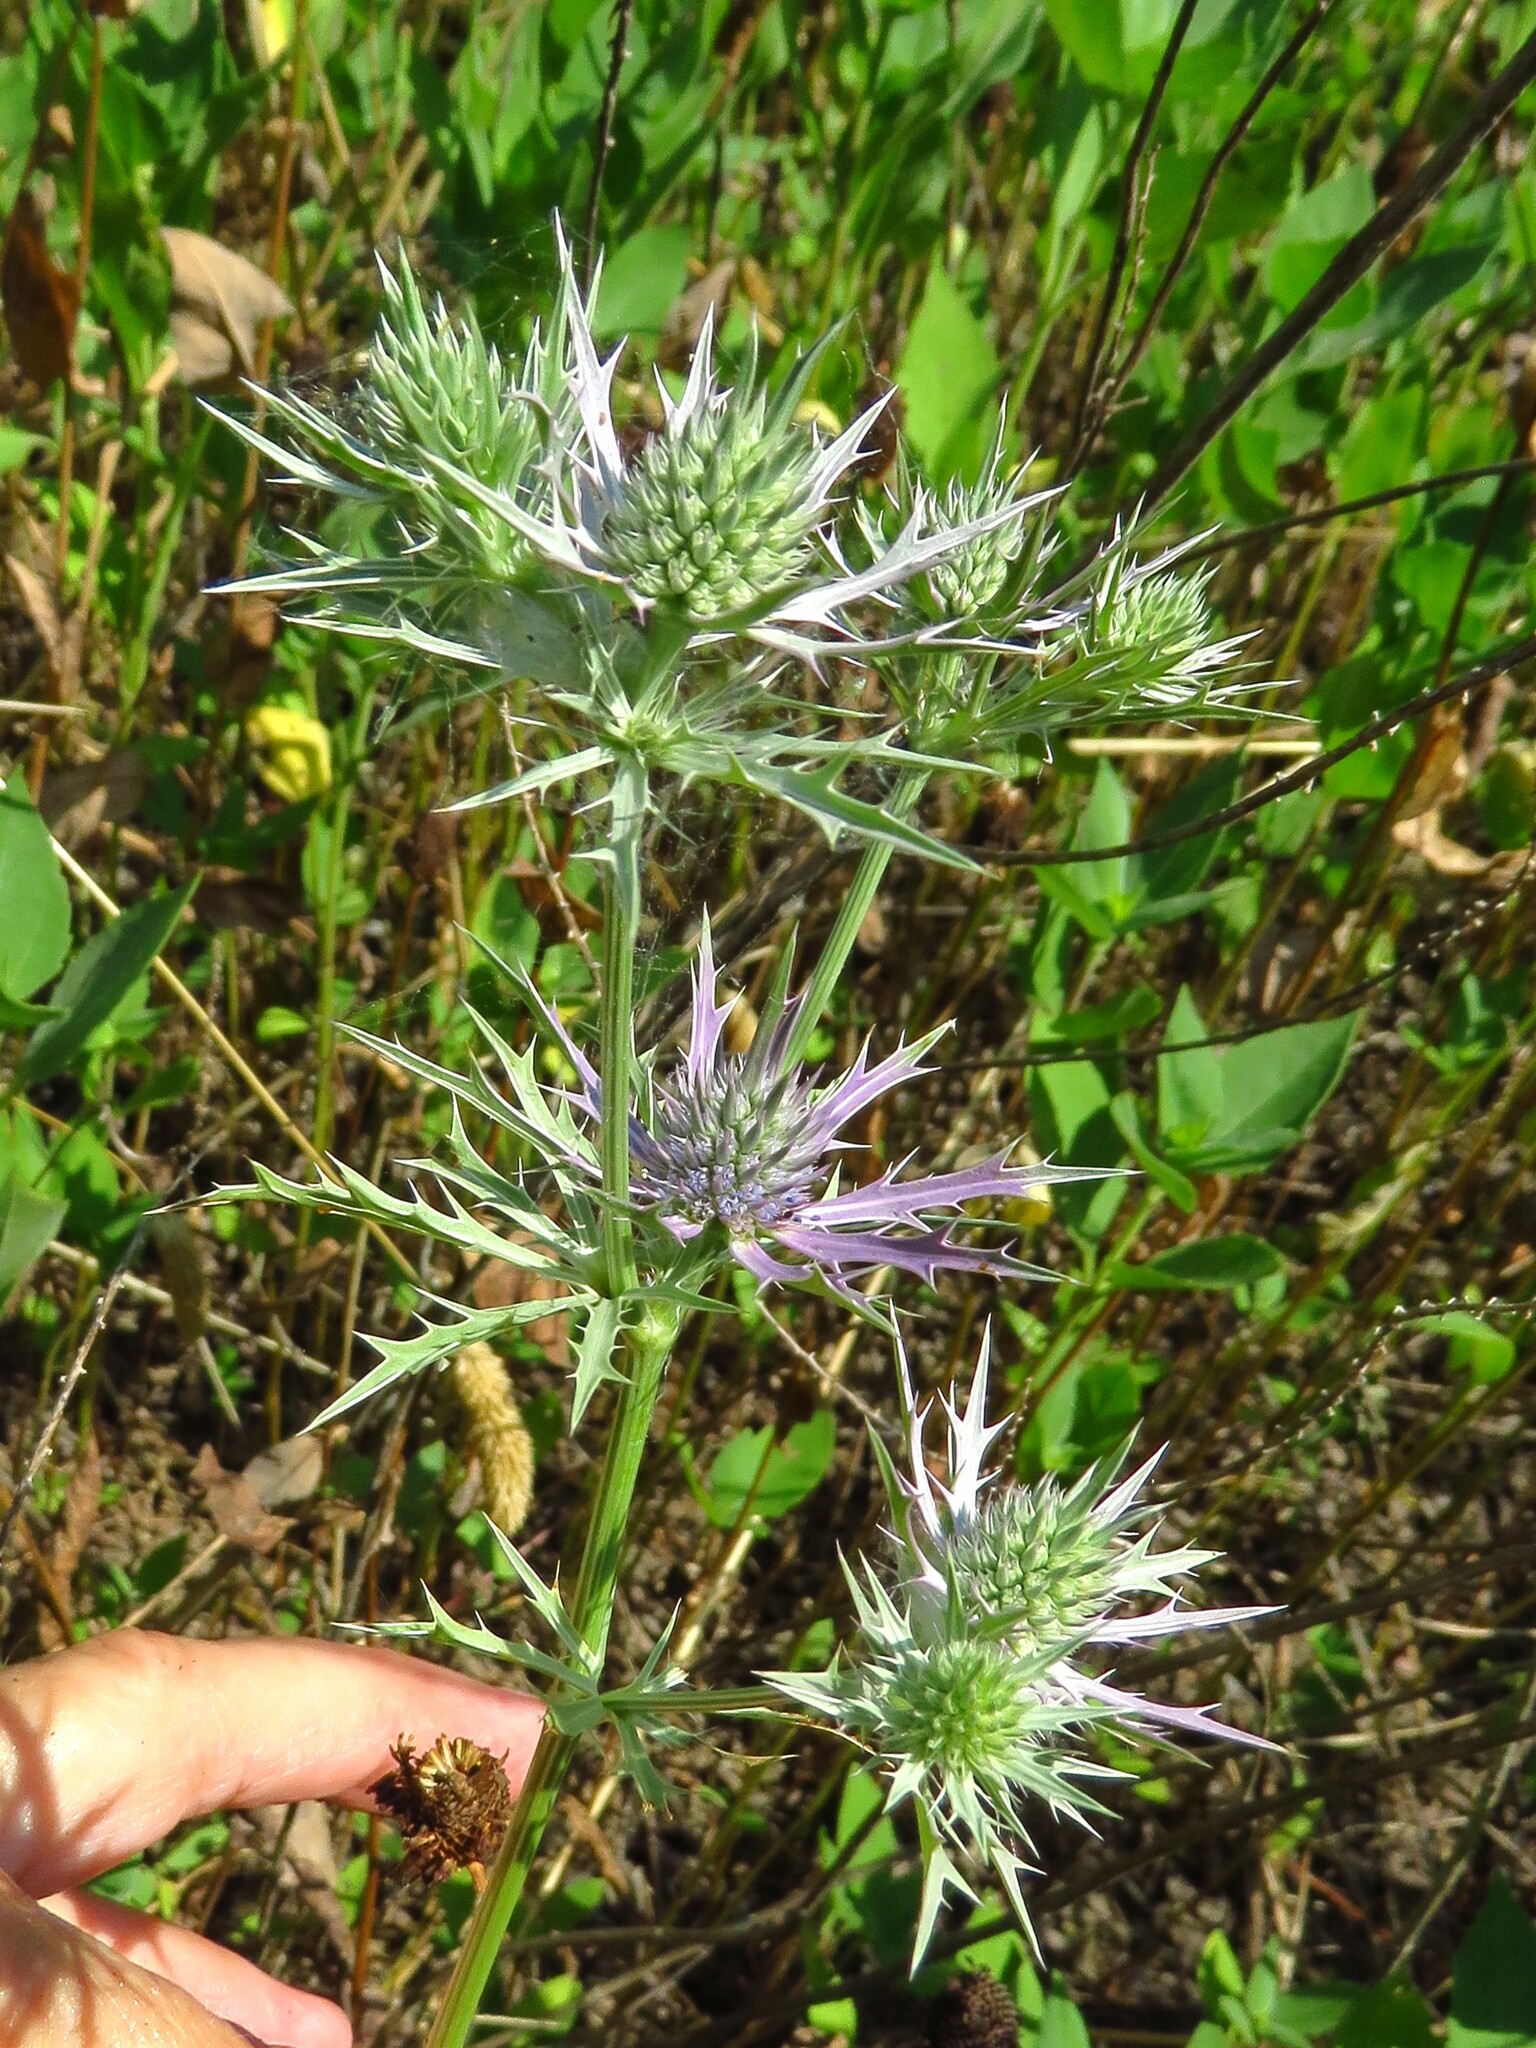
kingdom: Plantae
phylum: Tracheophyta
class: Magnoliopsida
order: Apiales
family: Apiaceae
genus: Eryngium
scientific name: Eryngium hookeri
